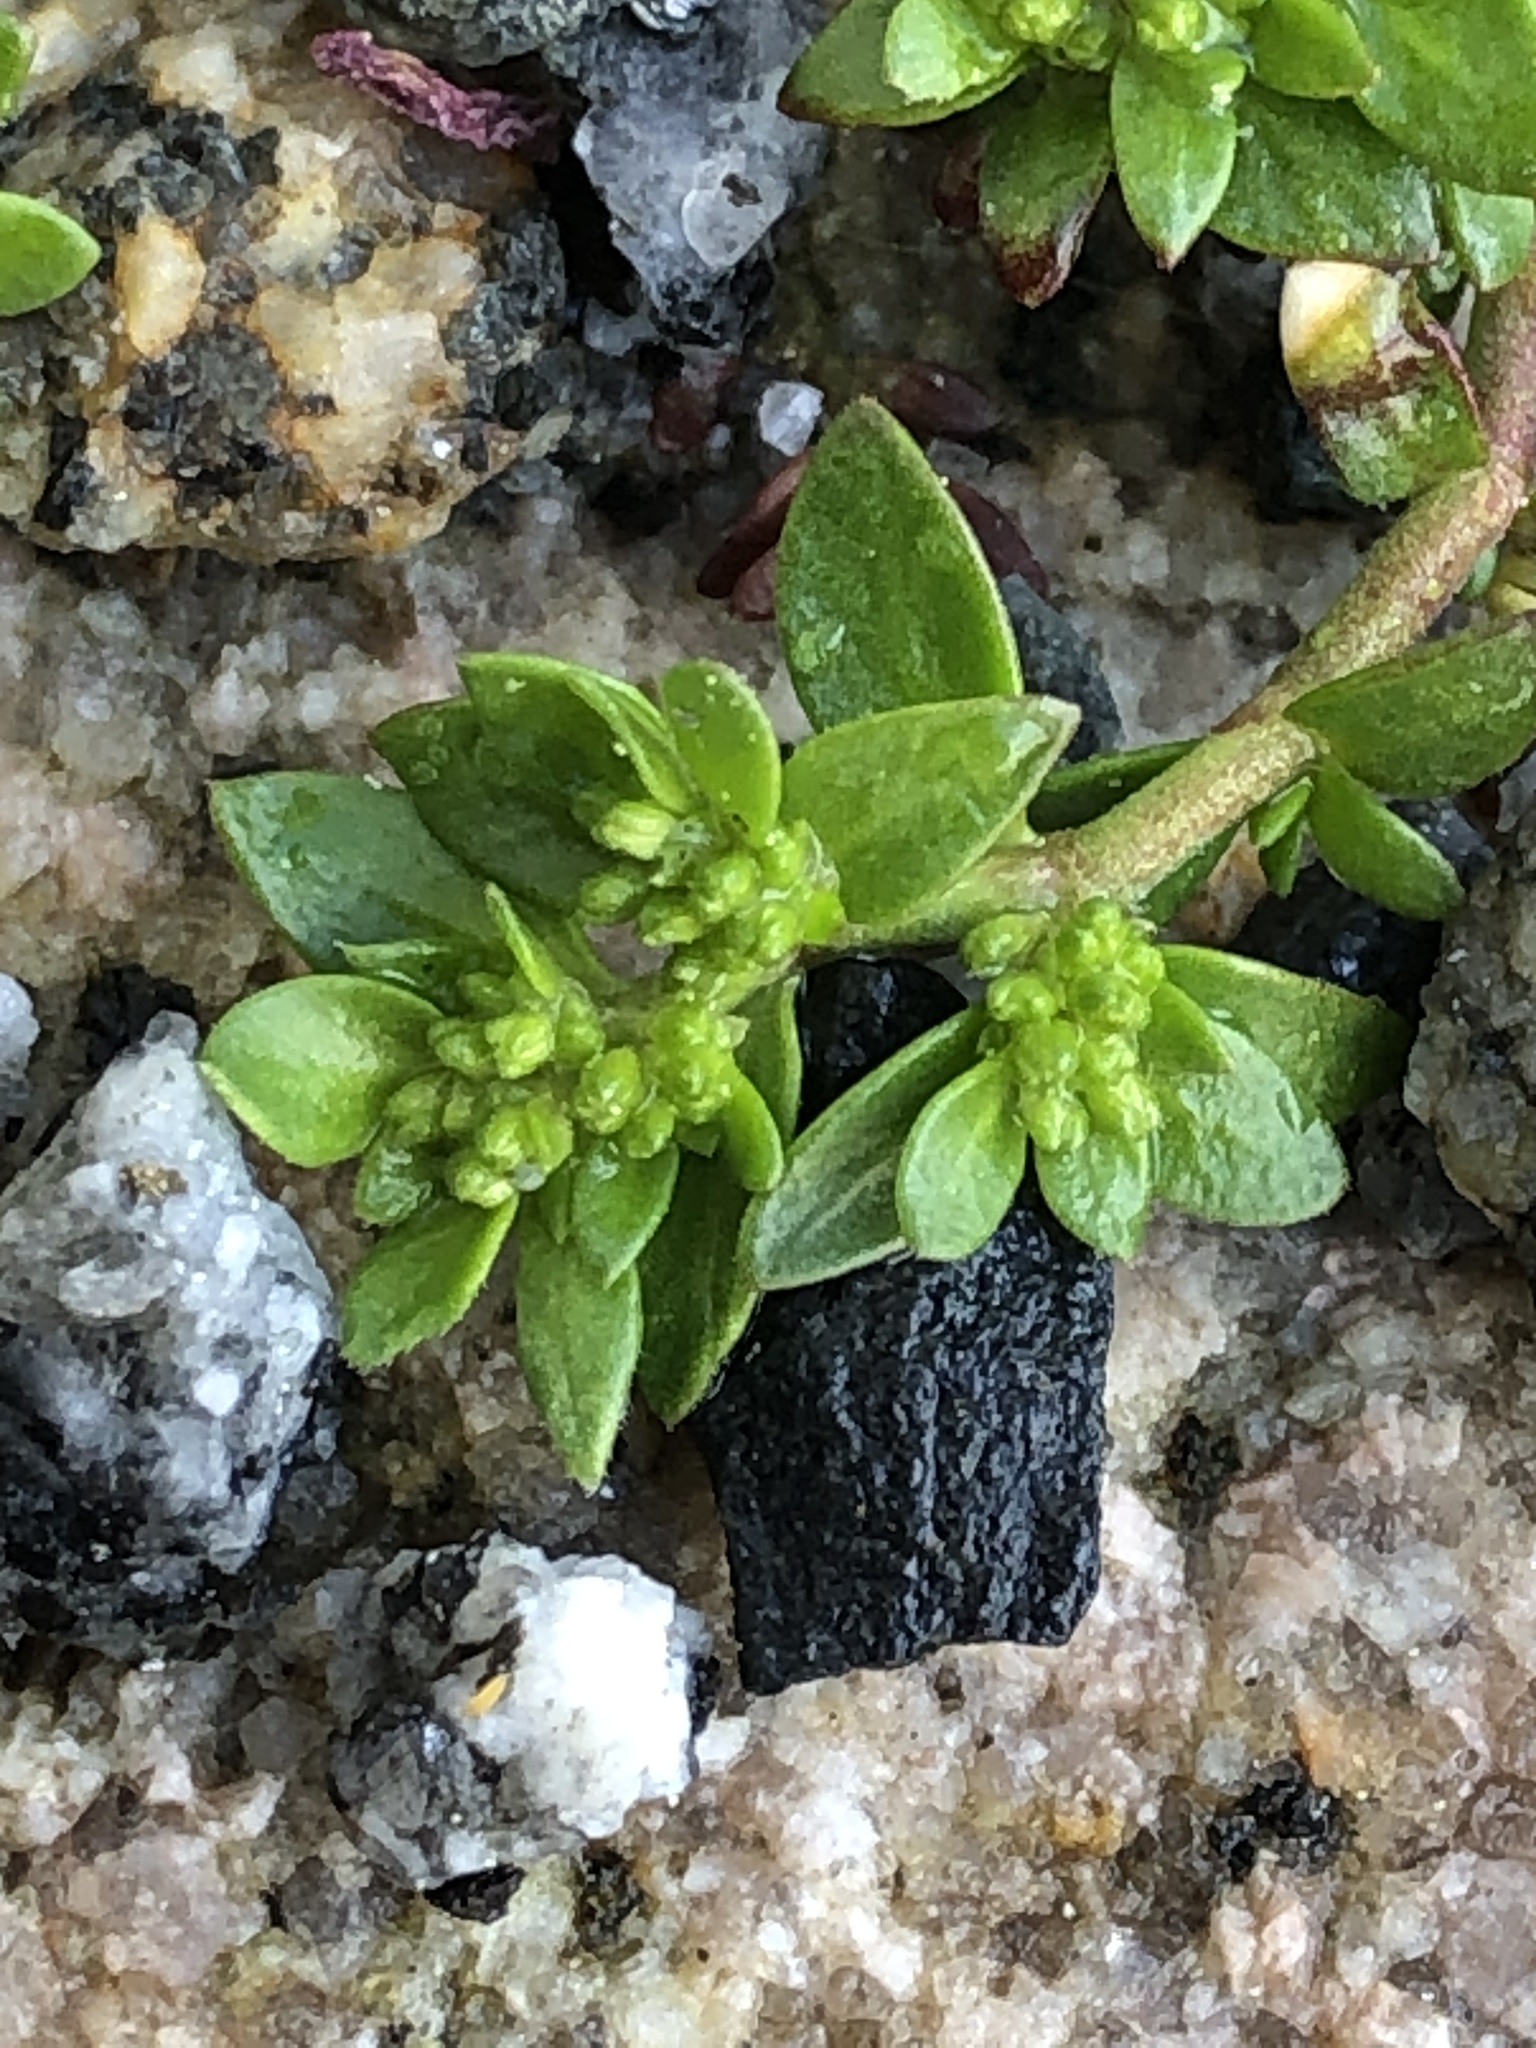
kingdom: Plantae
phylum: Tracheophyta
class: Magnoliopsida
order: Caryophyllales
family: Caryophyllaceae
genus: Herniaria
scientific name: Herniaria glabra
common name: Smooth rupturewort
